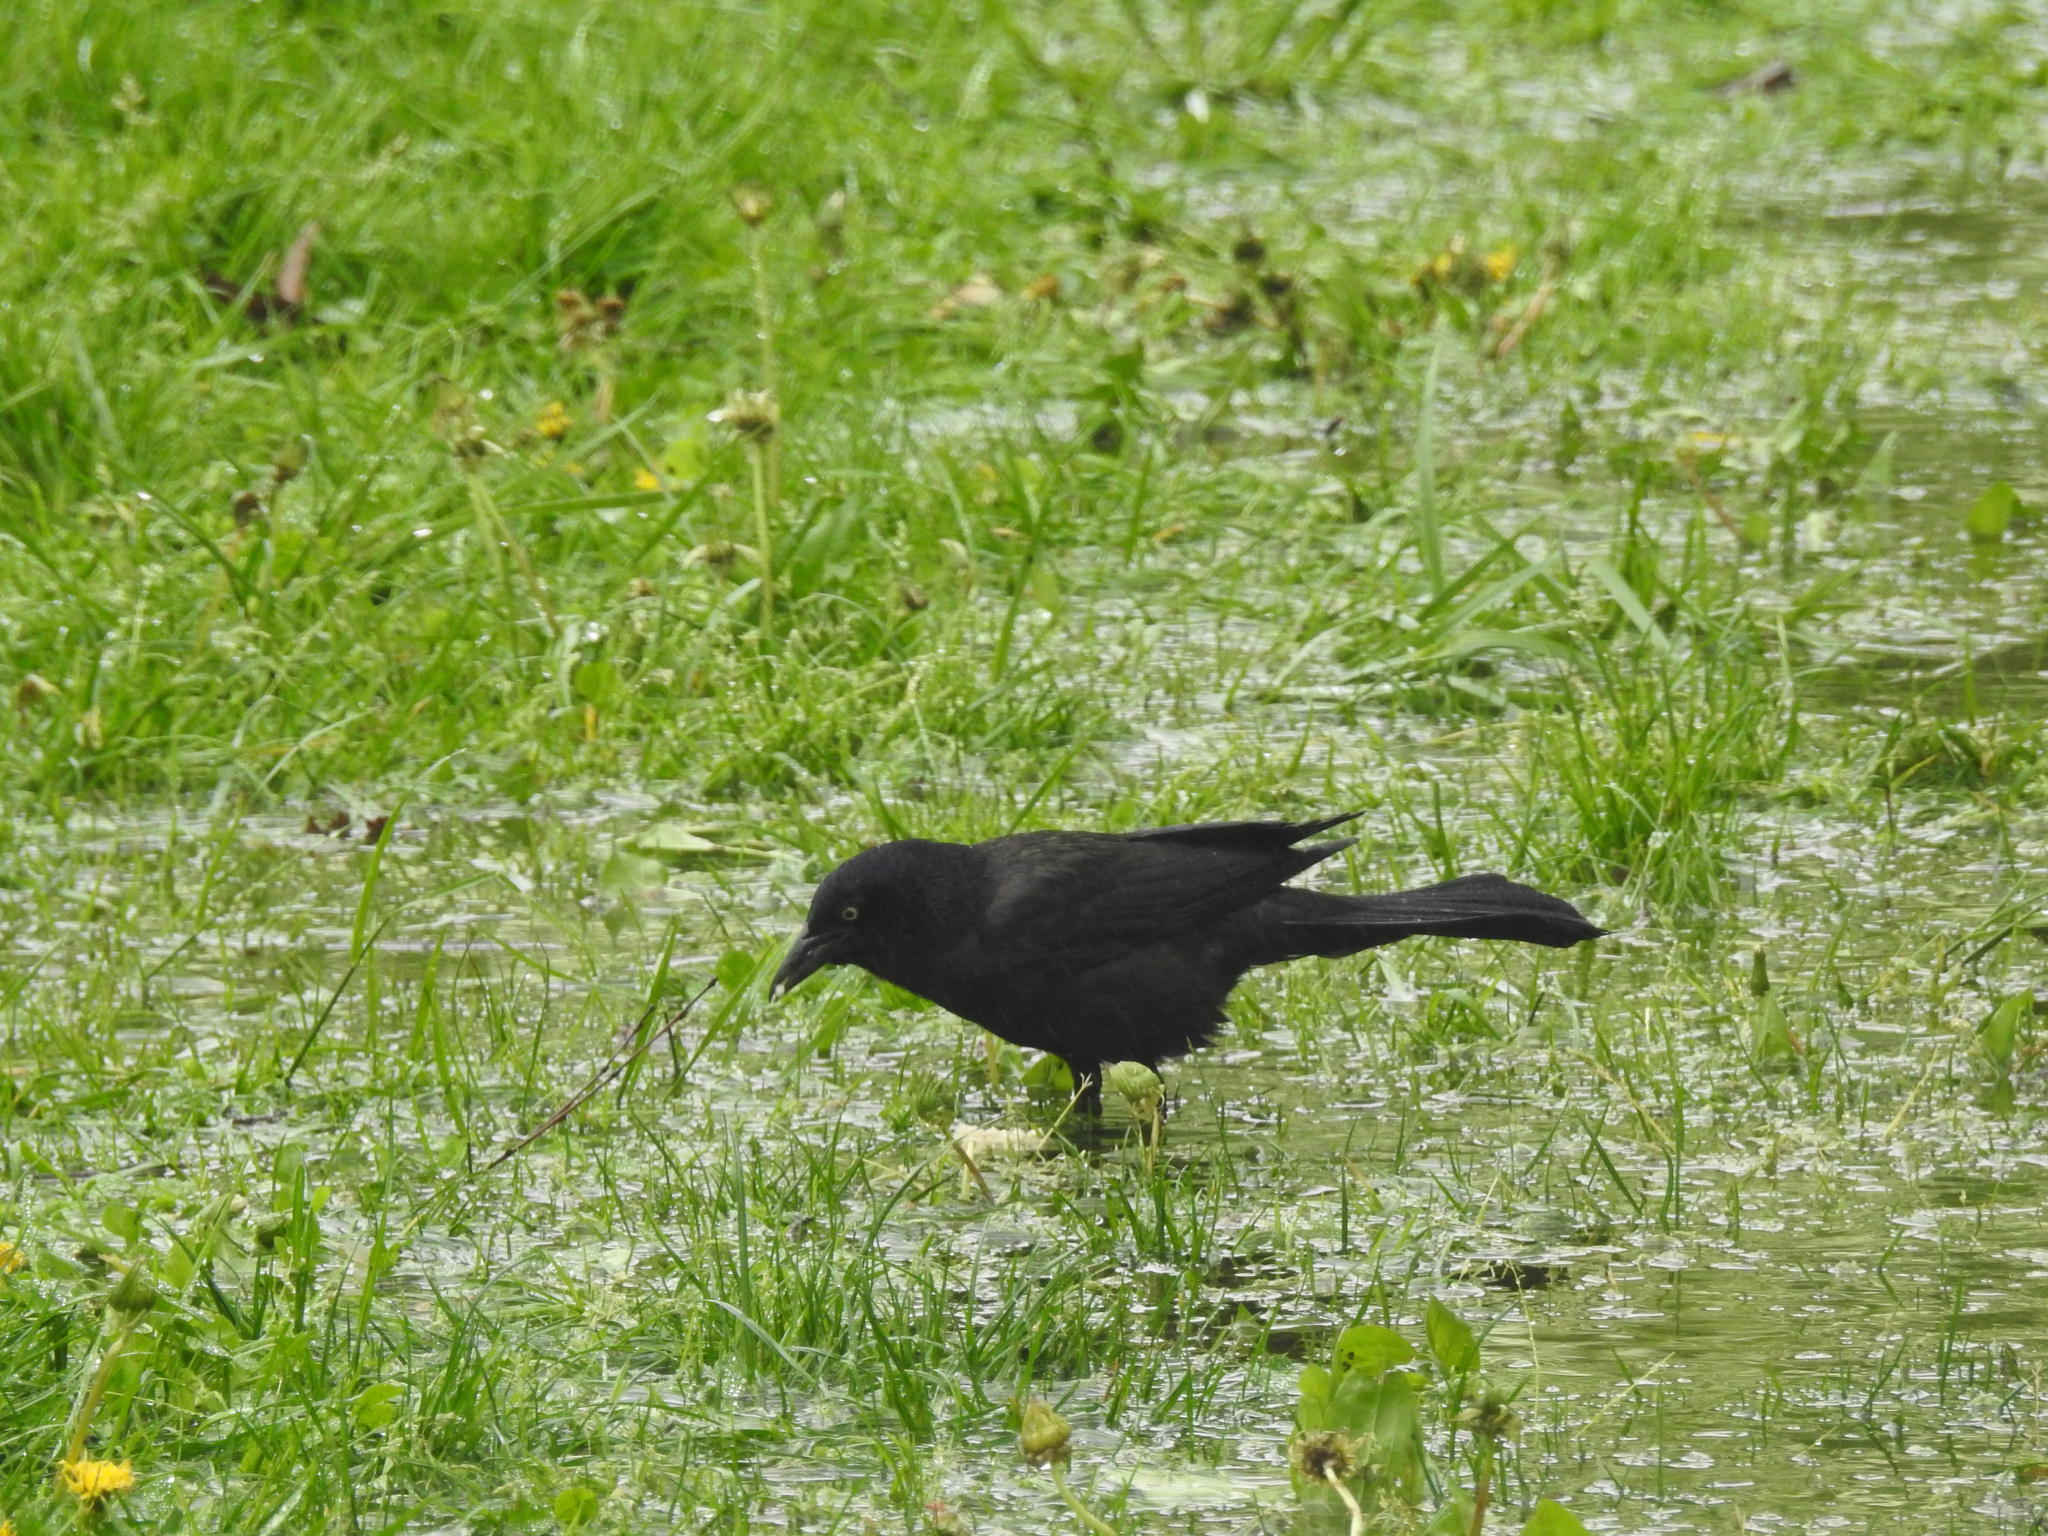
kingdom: Animalia
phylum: Chordata
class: Aves
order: Passeriformes
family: Icteridae
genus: Quiscalus
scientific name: Quiscalus quiscula
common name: Common grackle
